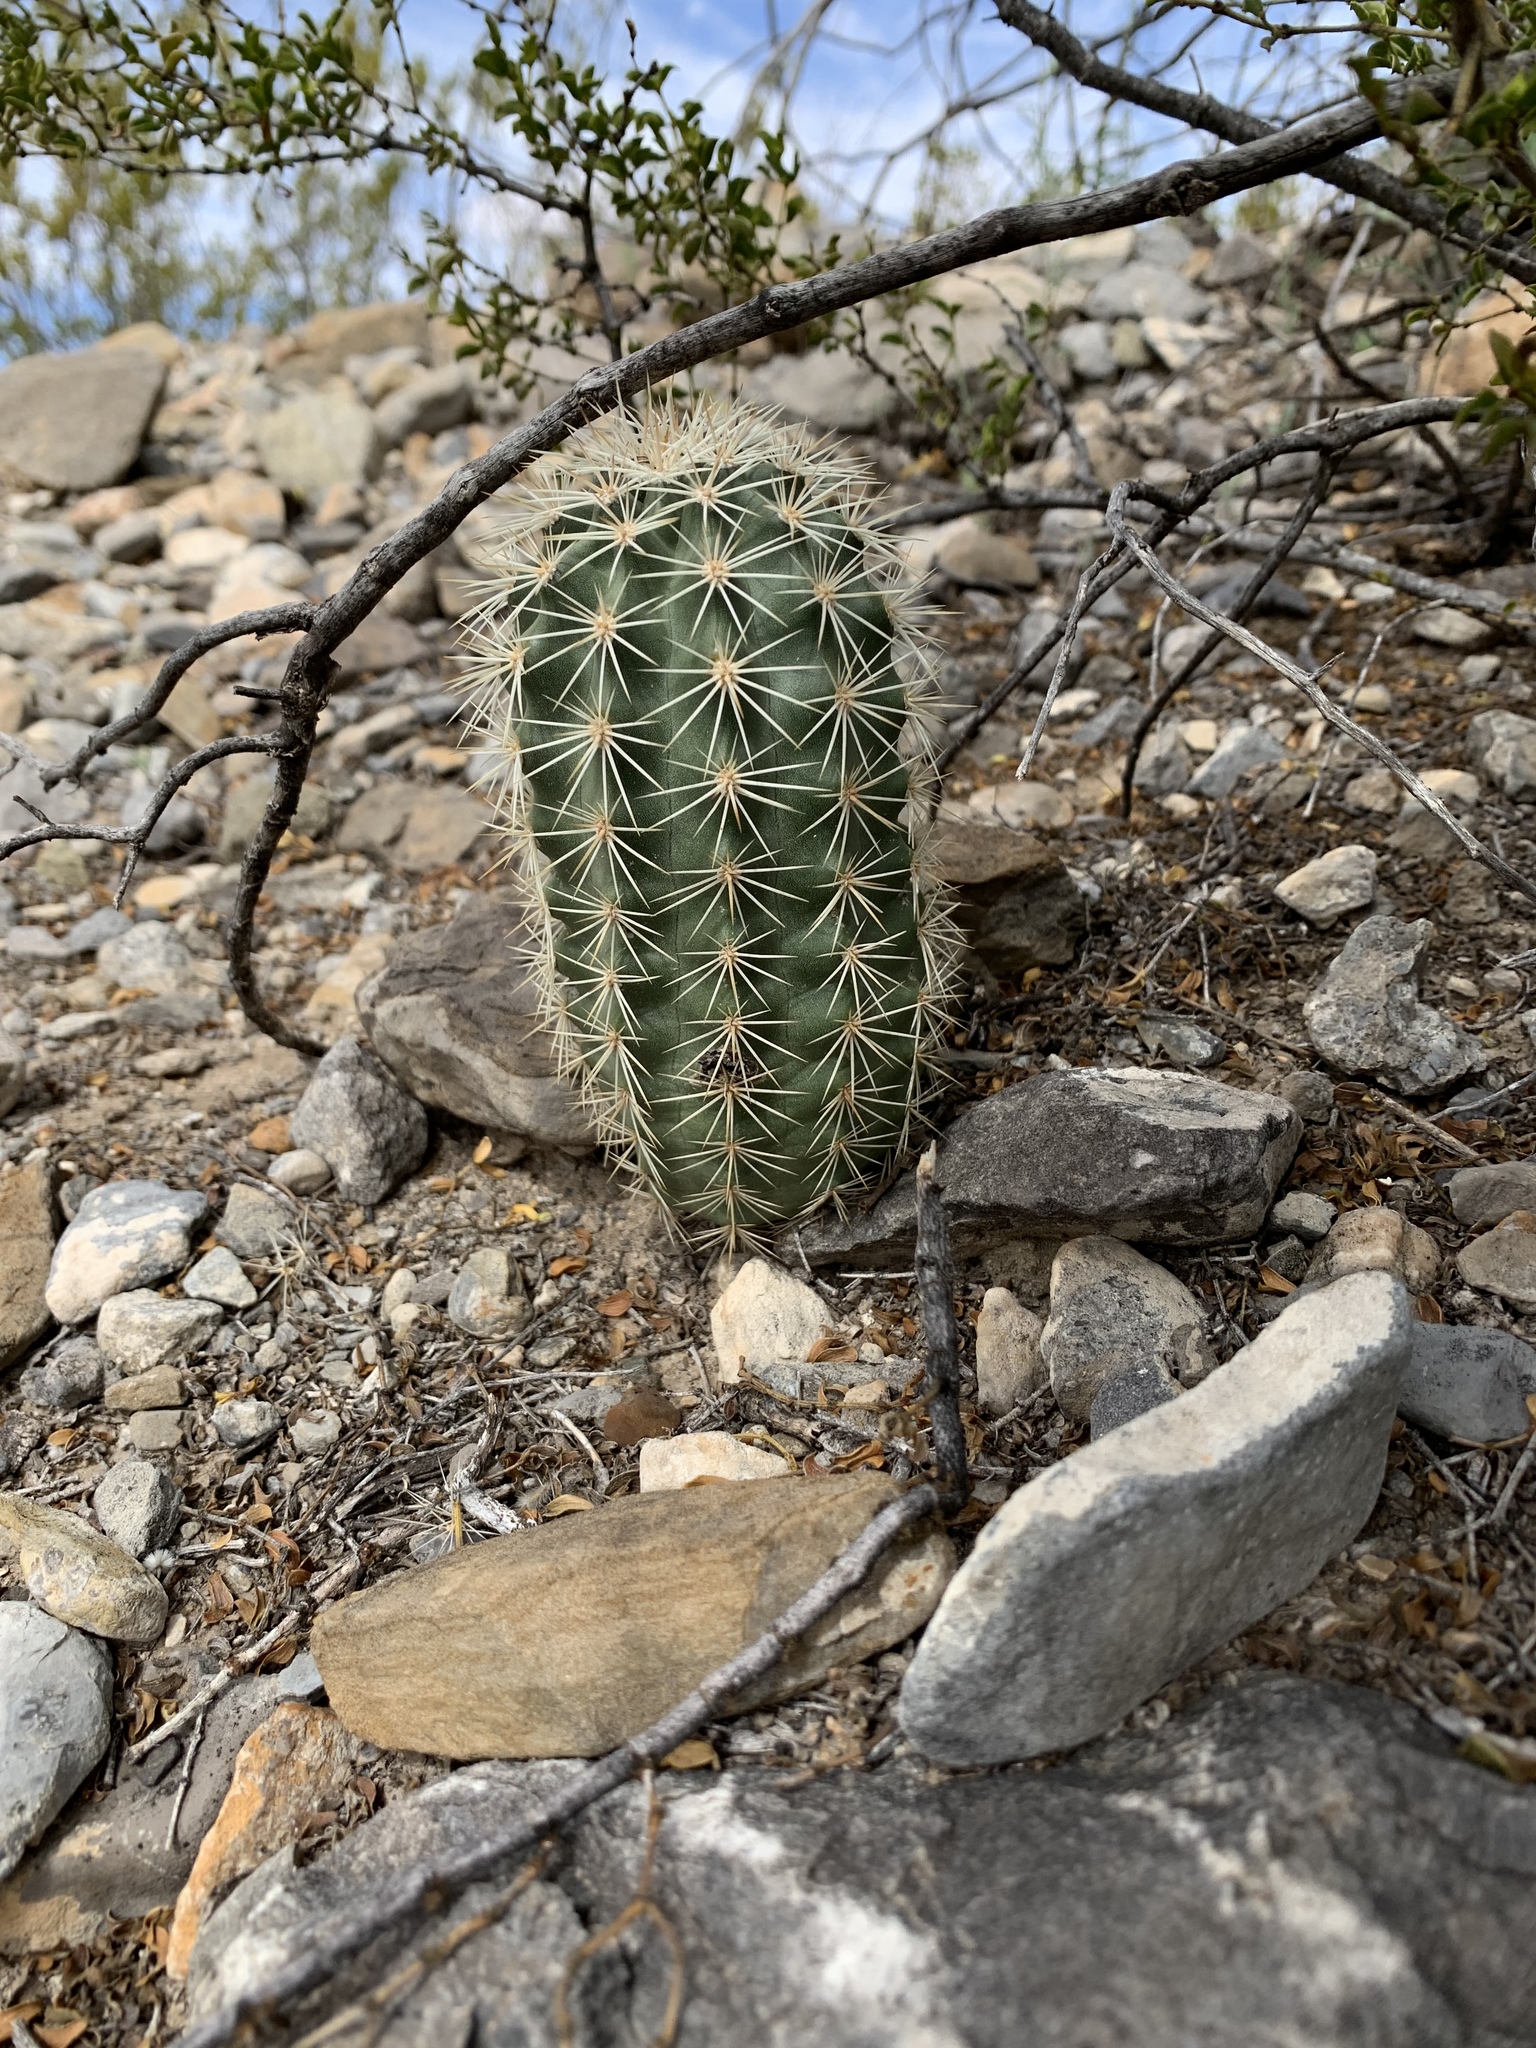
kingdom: Plantae
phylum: Tracheophyta
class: Magnoliopsida
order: Caryophyllales
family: Cactaceae
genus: Echinocereus
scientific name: Echinocereus coccineus
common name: Scarlet hedgehog cactus
